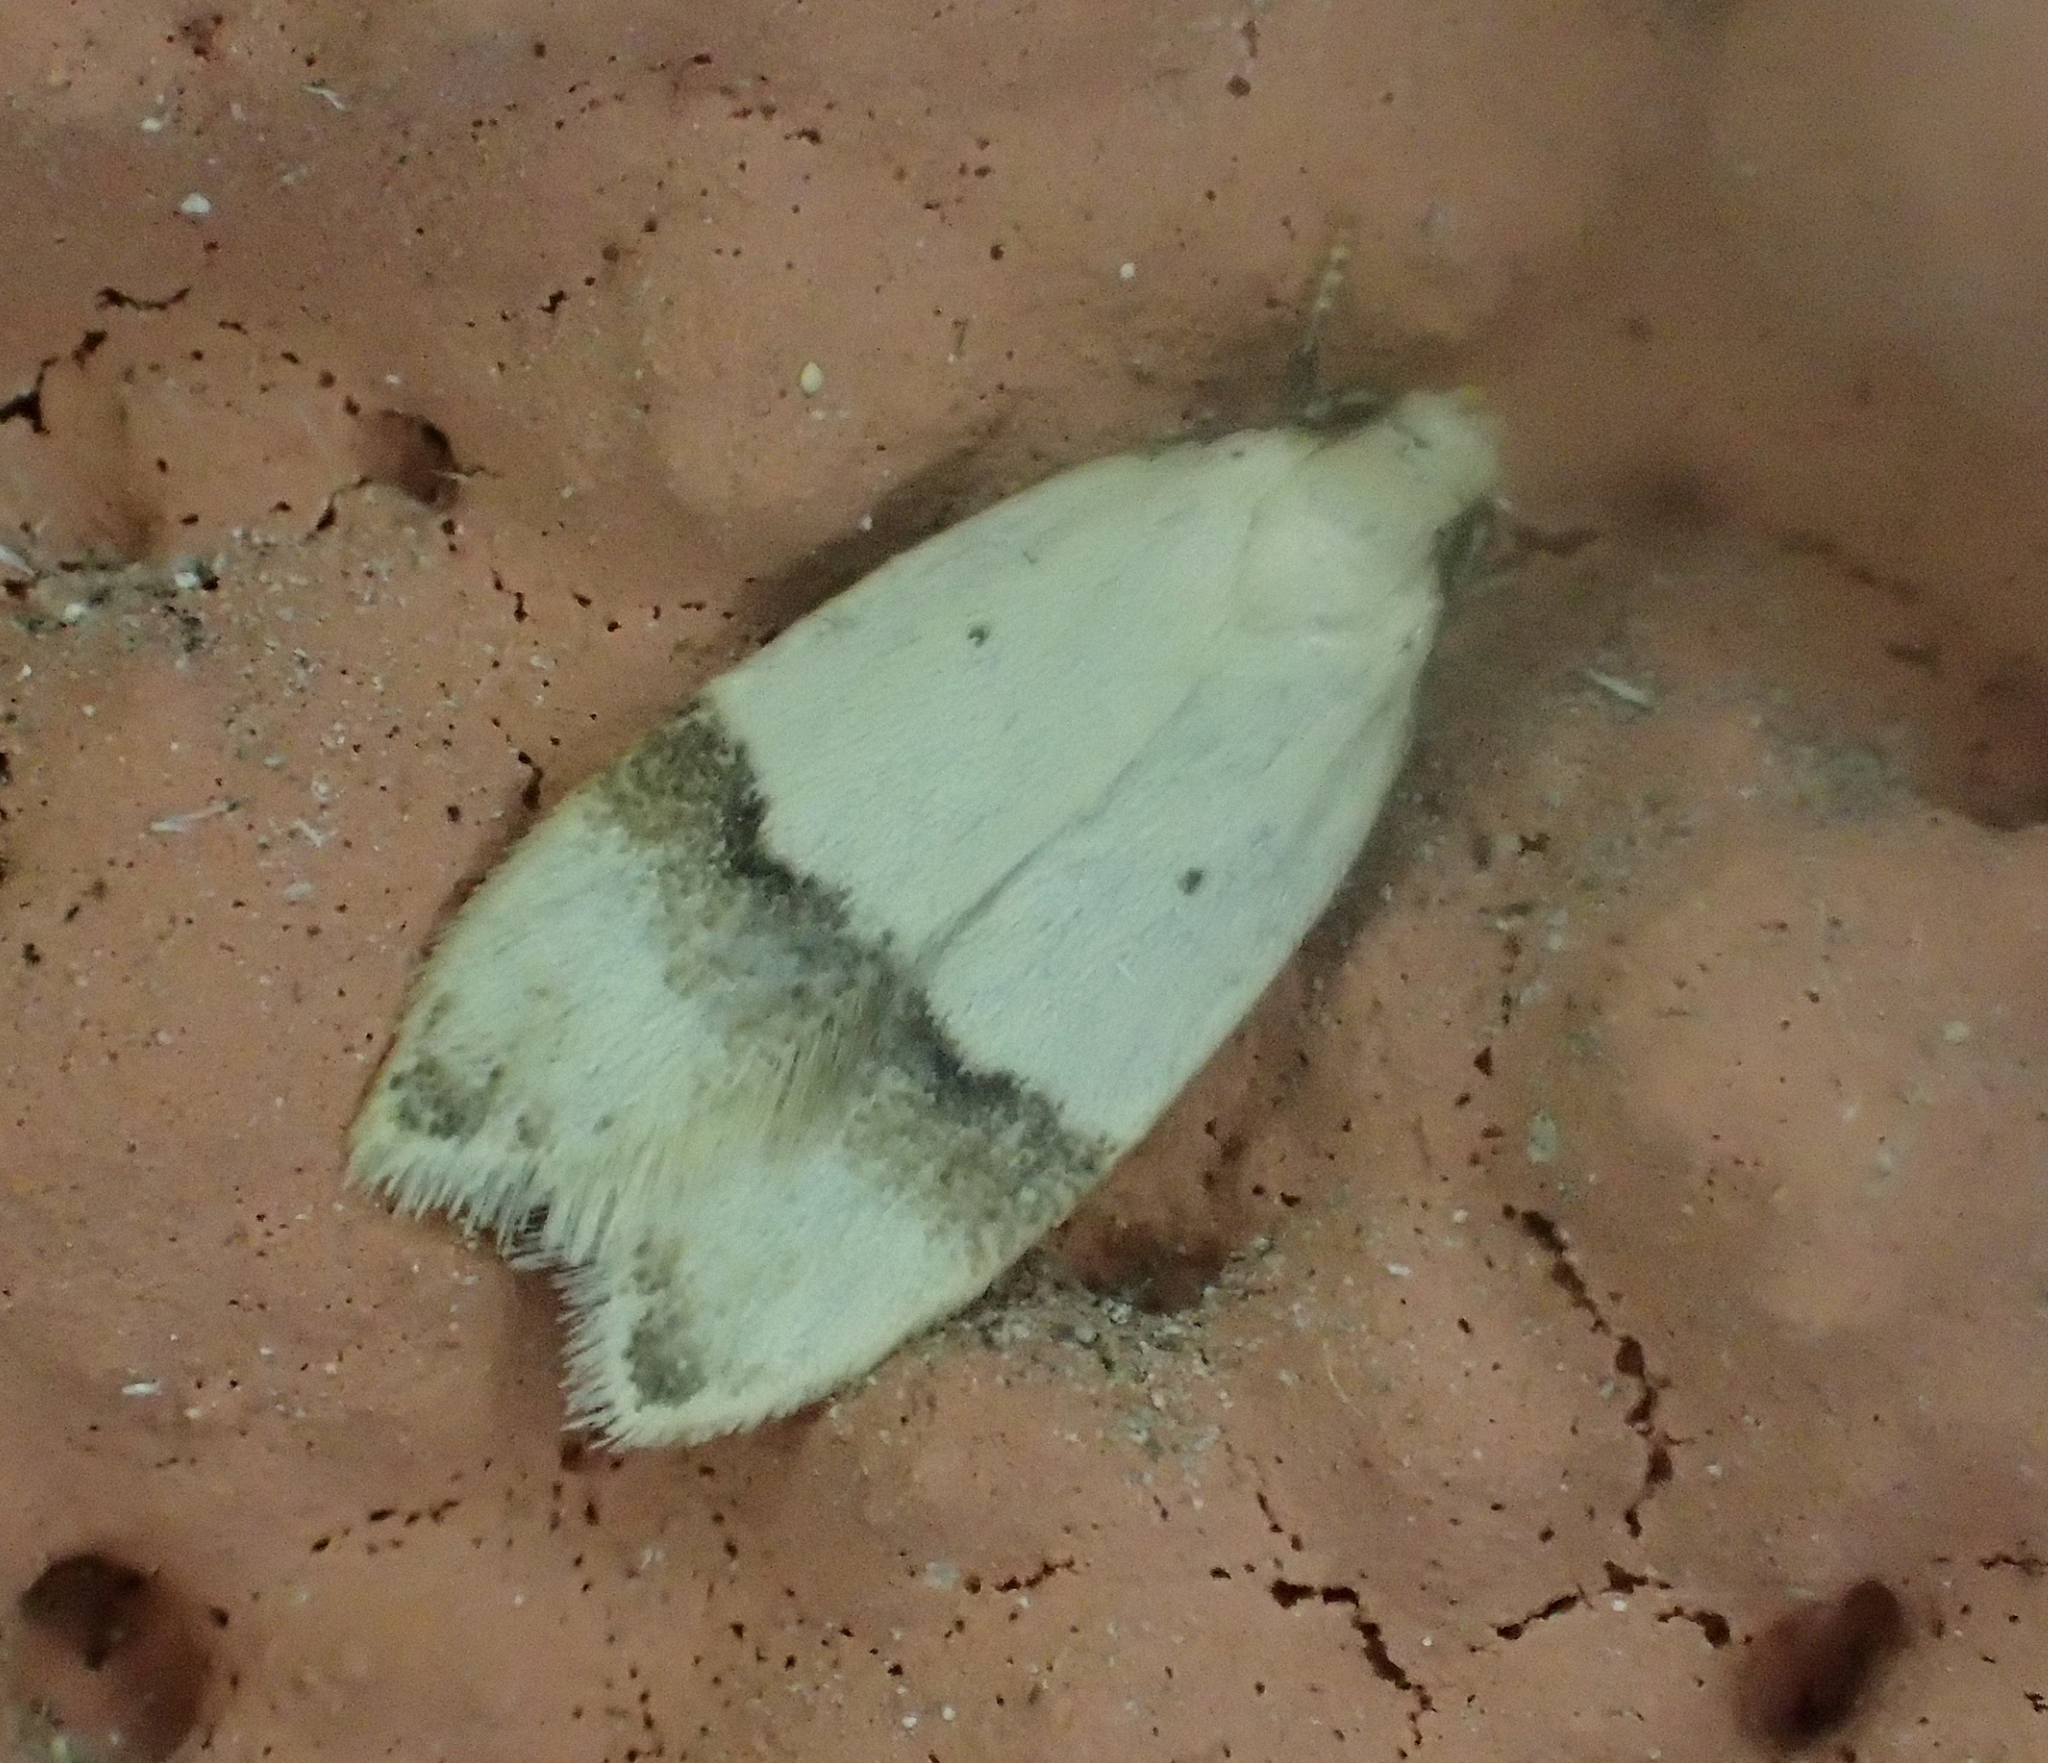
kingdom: Animalia
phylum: Arthropoda
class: Insecta
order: Lepidoptera
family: Peleopodidae
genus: Odites
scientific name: Odites kollarella
